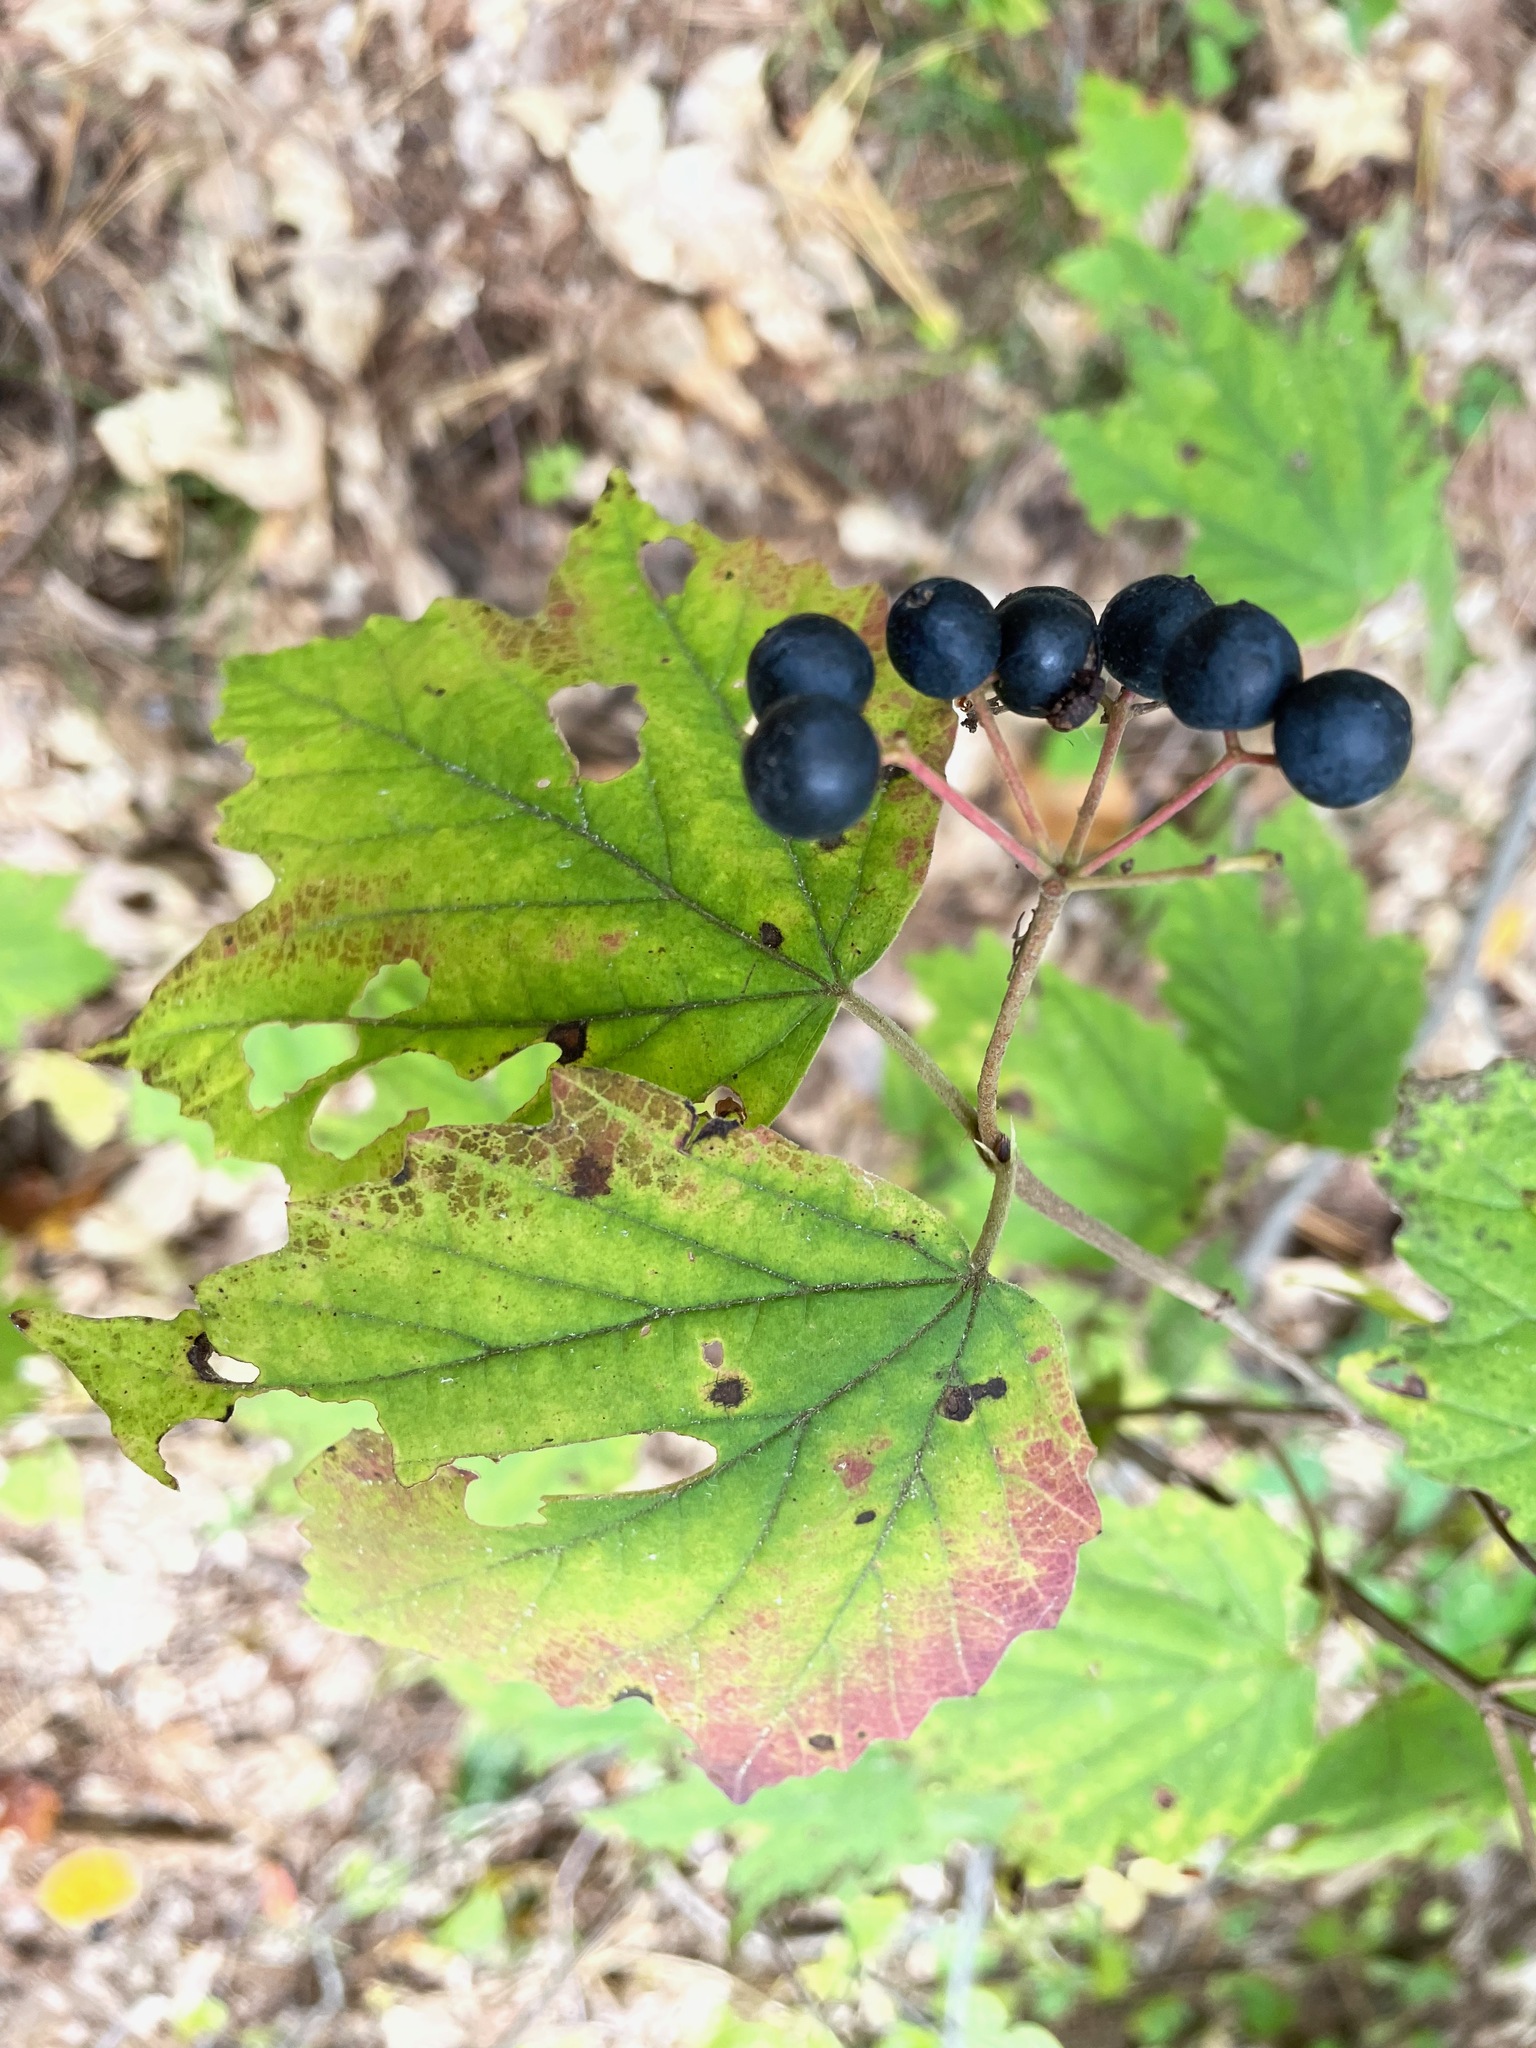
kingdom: Plantae
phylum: Tracheophyta
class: Magnoliopsida
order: Dipsacales
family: Viburnaceae
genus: Viburnum
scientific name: Viburnum acerifolium
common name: Dockmackie
